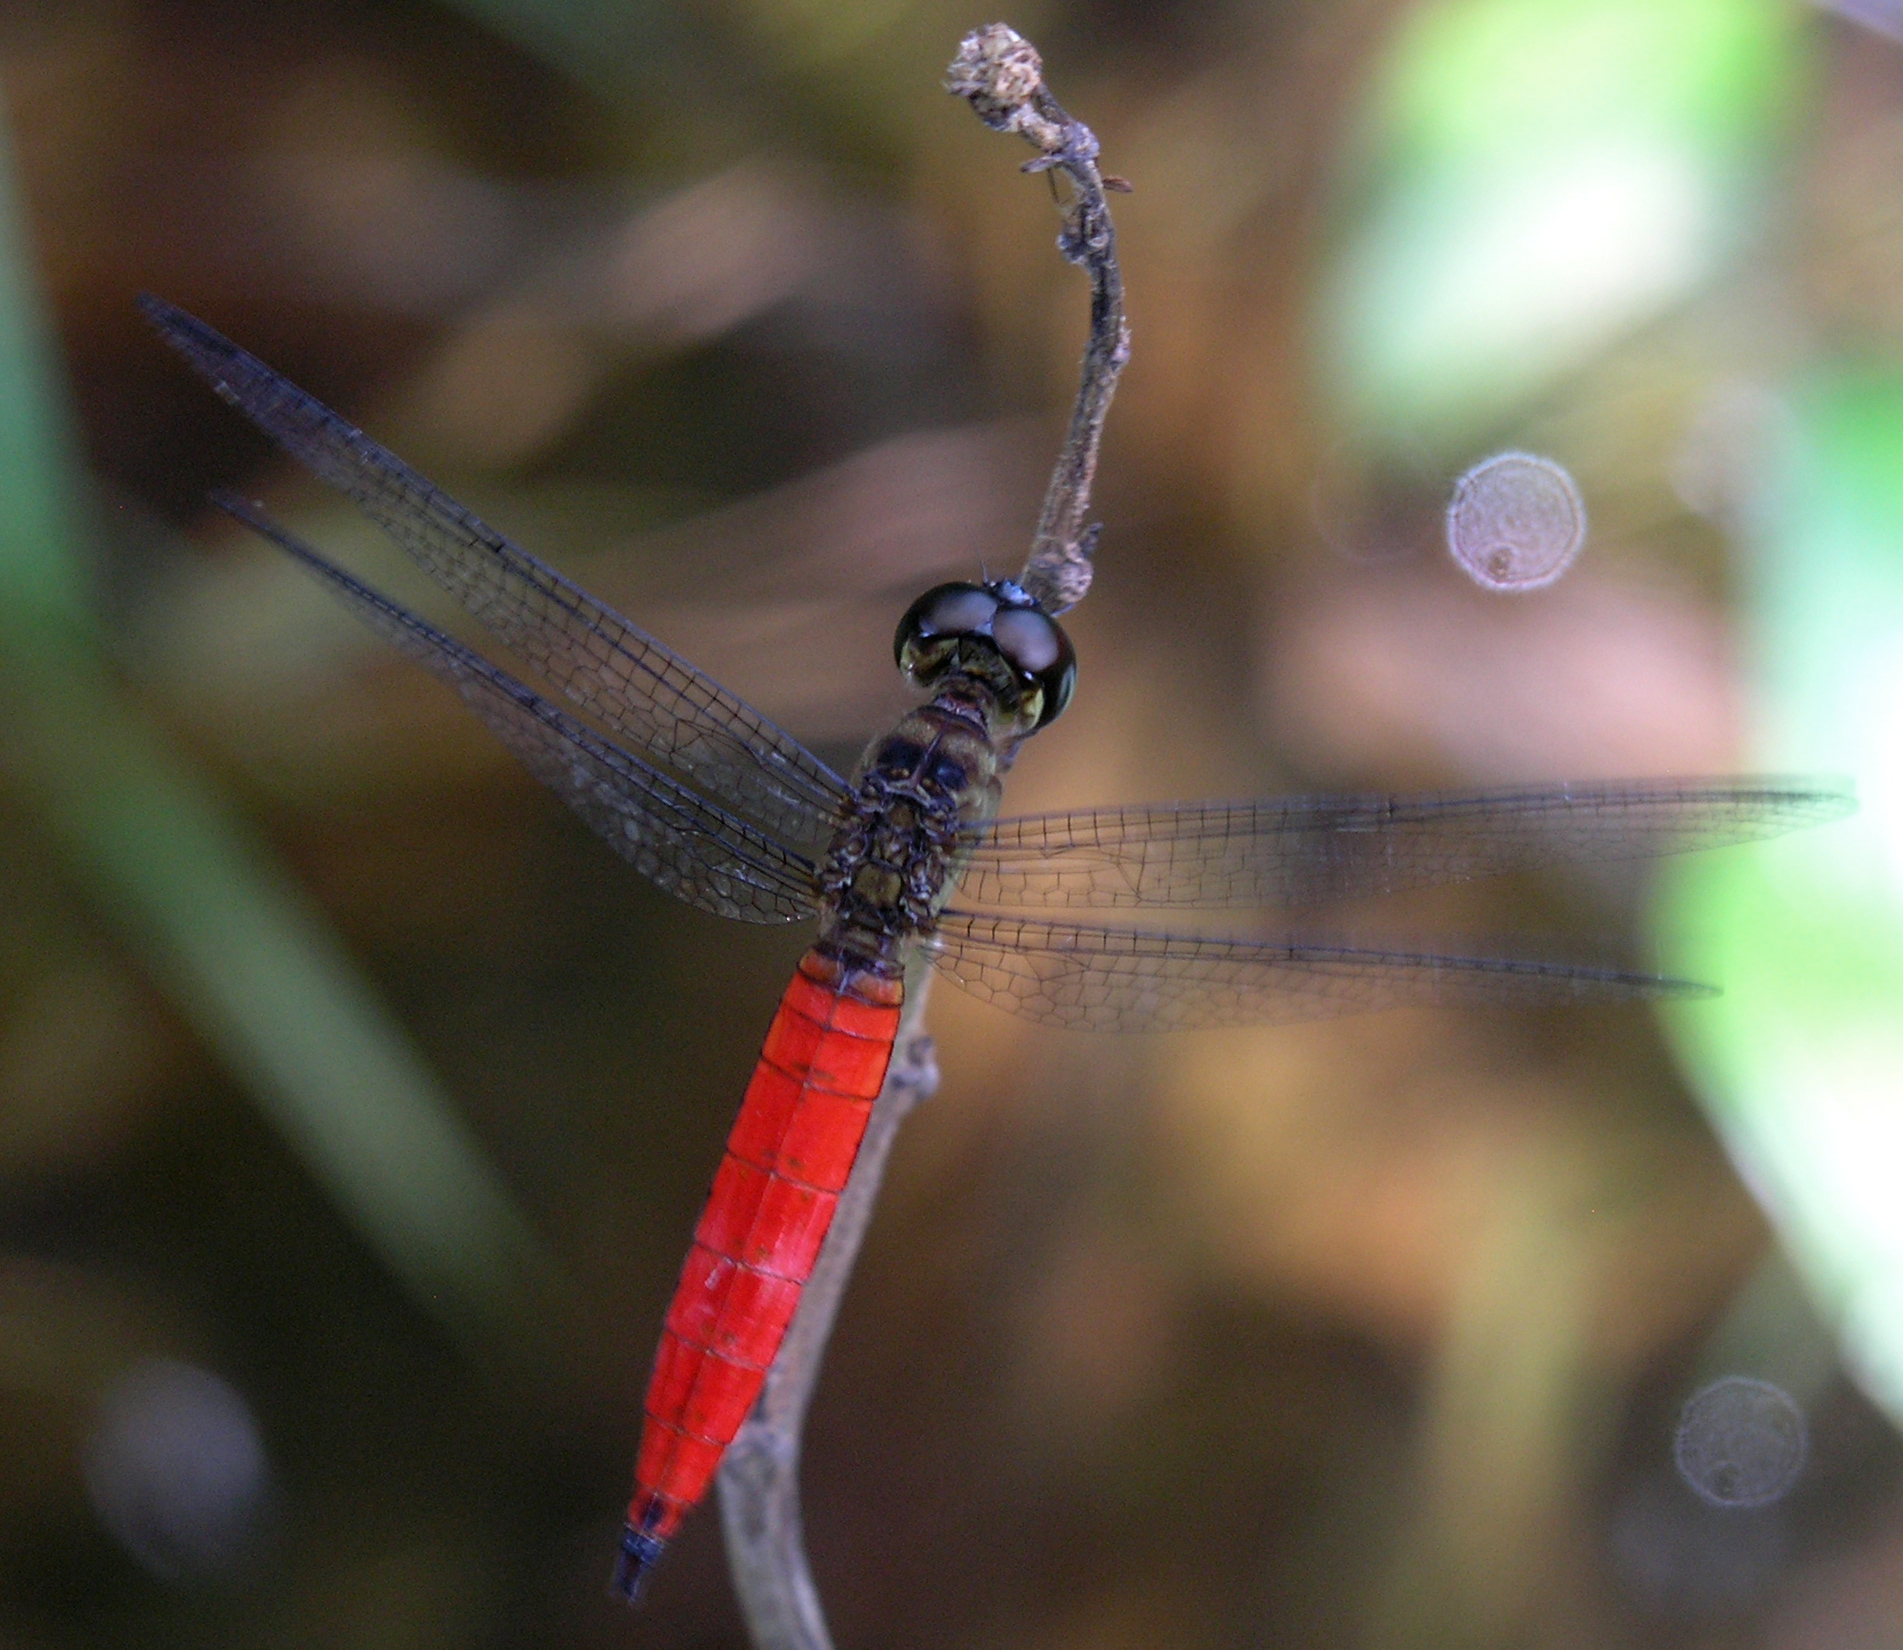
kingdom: Animalia
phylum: Arthropoda
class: Insecta
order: Odonata
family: Libellulidae
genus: Orchithemis
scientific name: Orchithemis pulcherrima
